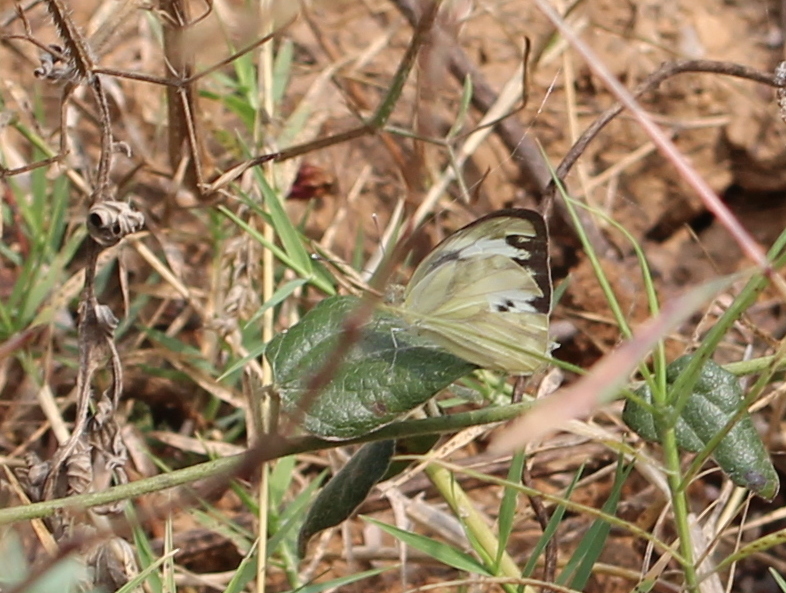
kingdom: Animalia
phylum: Arthropoda
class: Insecta
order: Lepidoptera
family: Pieridae
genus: Cepora
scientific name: Cepora nerissa
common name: Common gull
